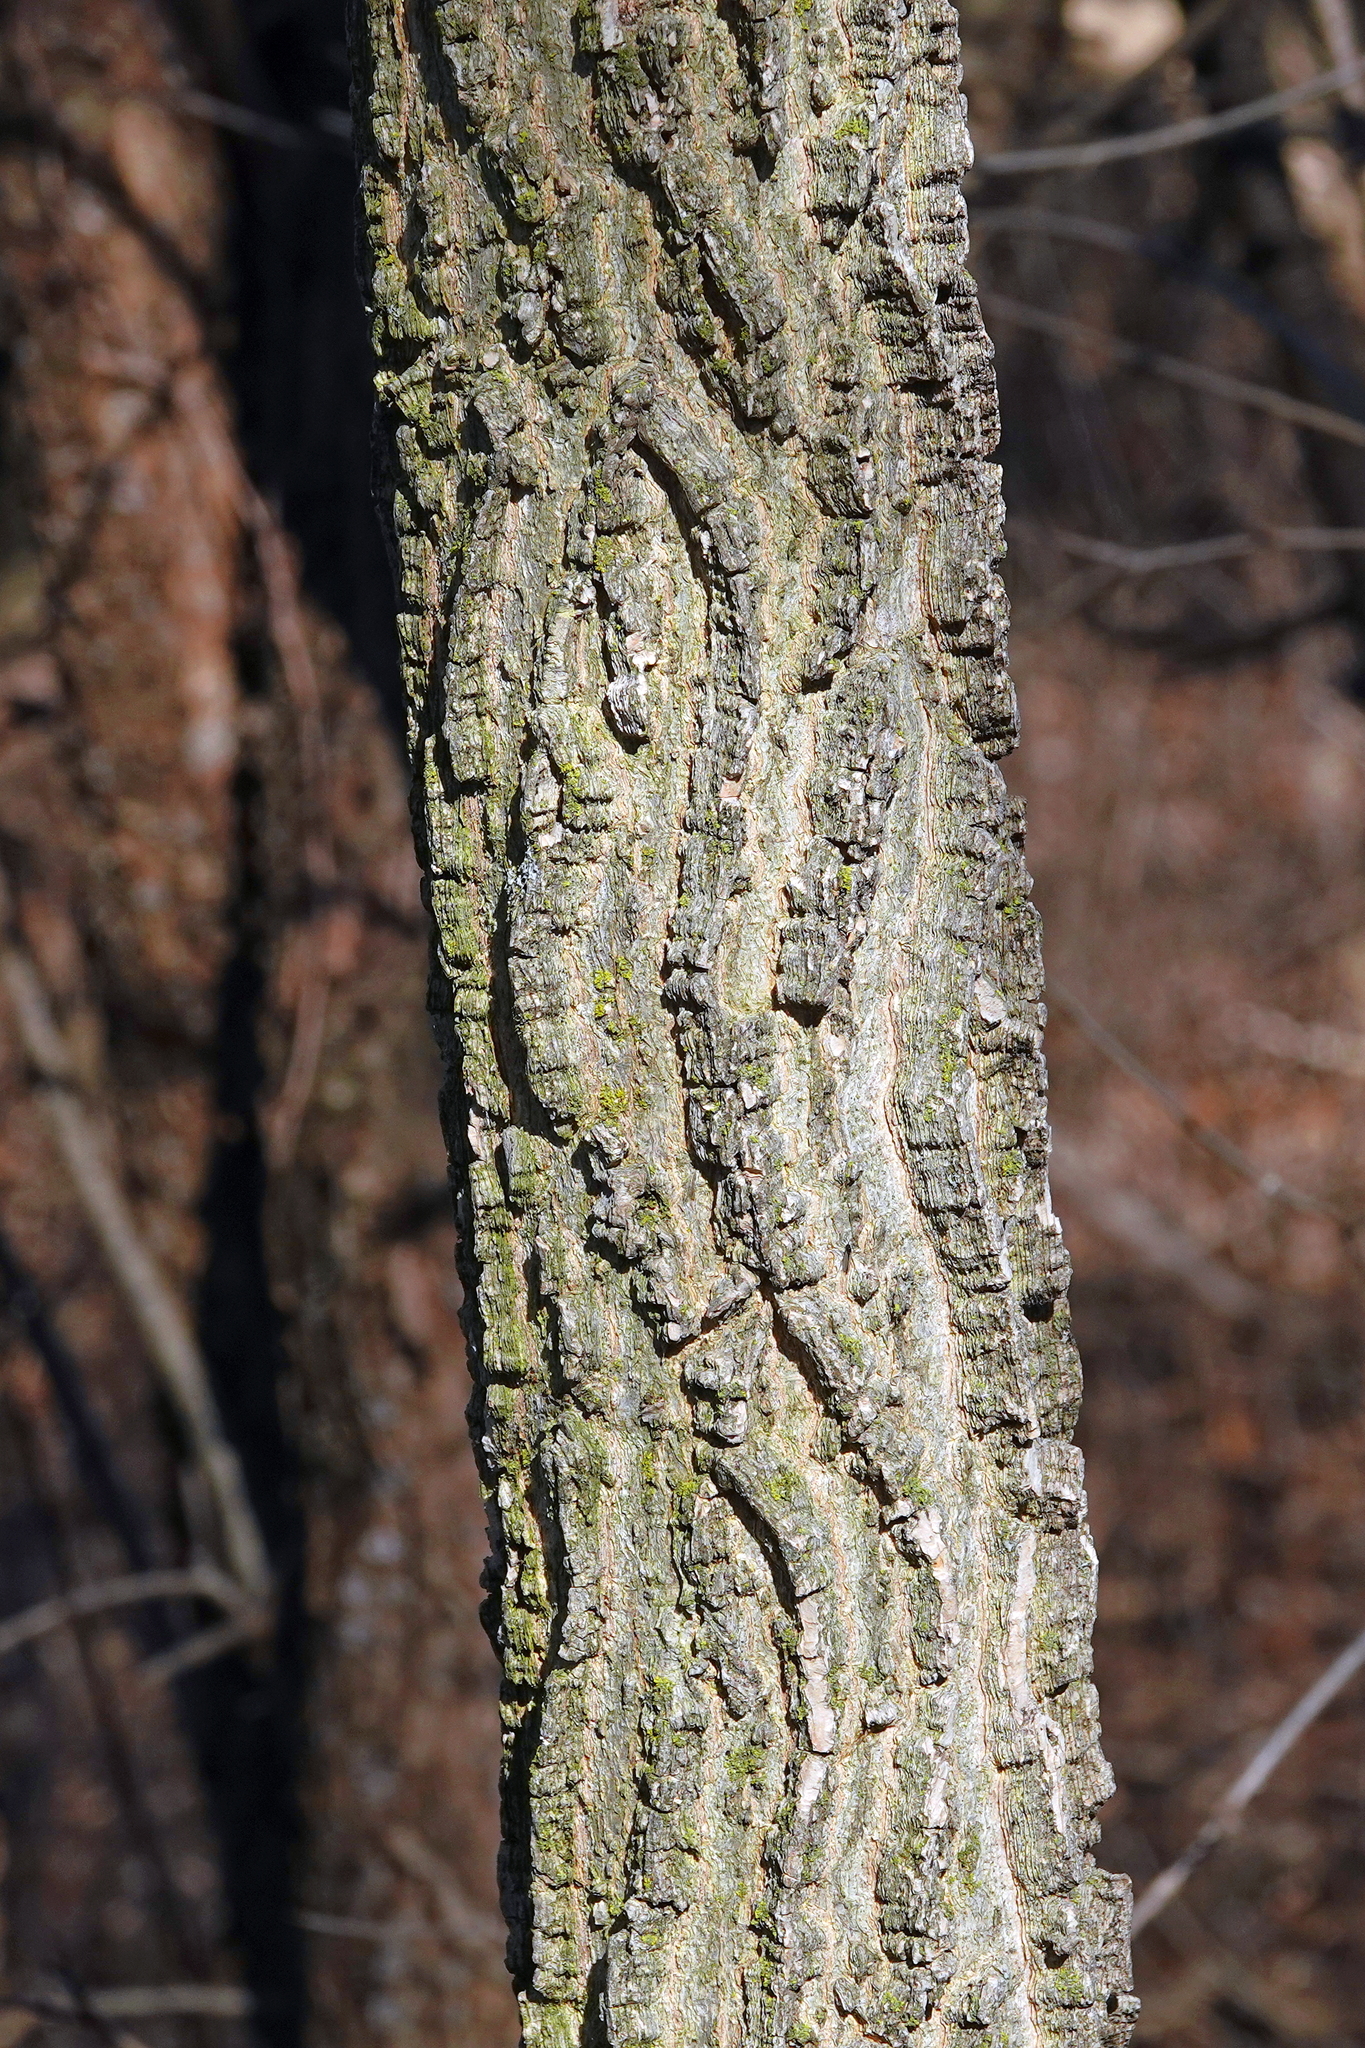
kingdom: Plantae
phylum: Tracheophyta
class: Magnoliopsida
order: Rosales
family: Cannabaceae
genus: Celtis
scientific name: Celtis occidentalis
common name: Common hackberry
